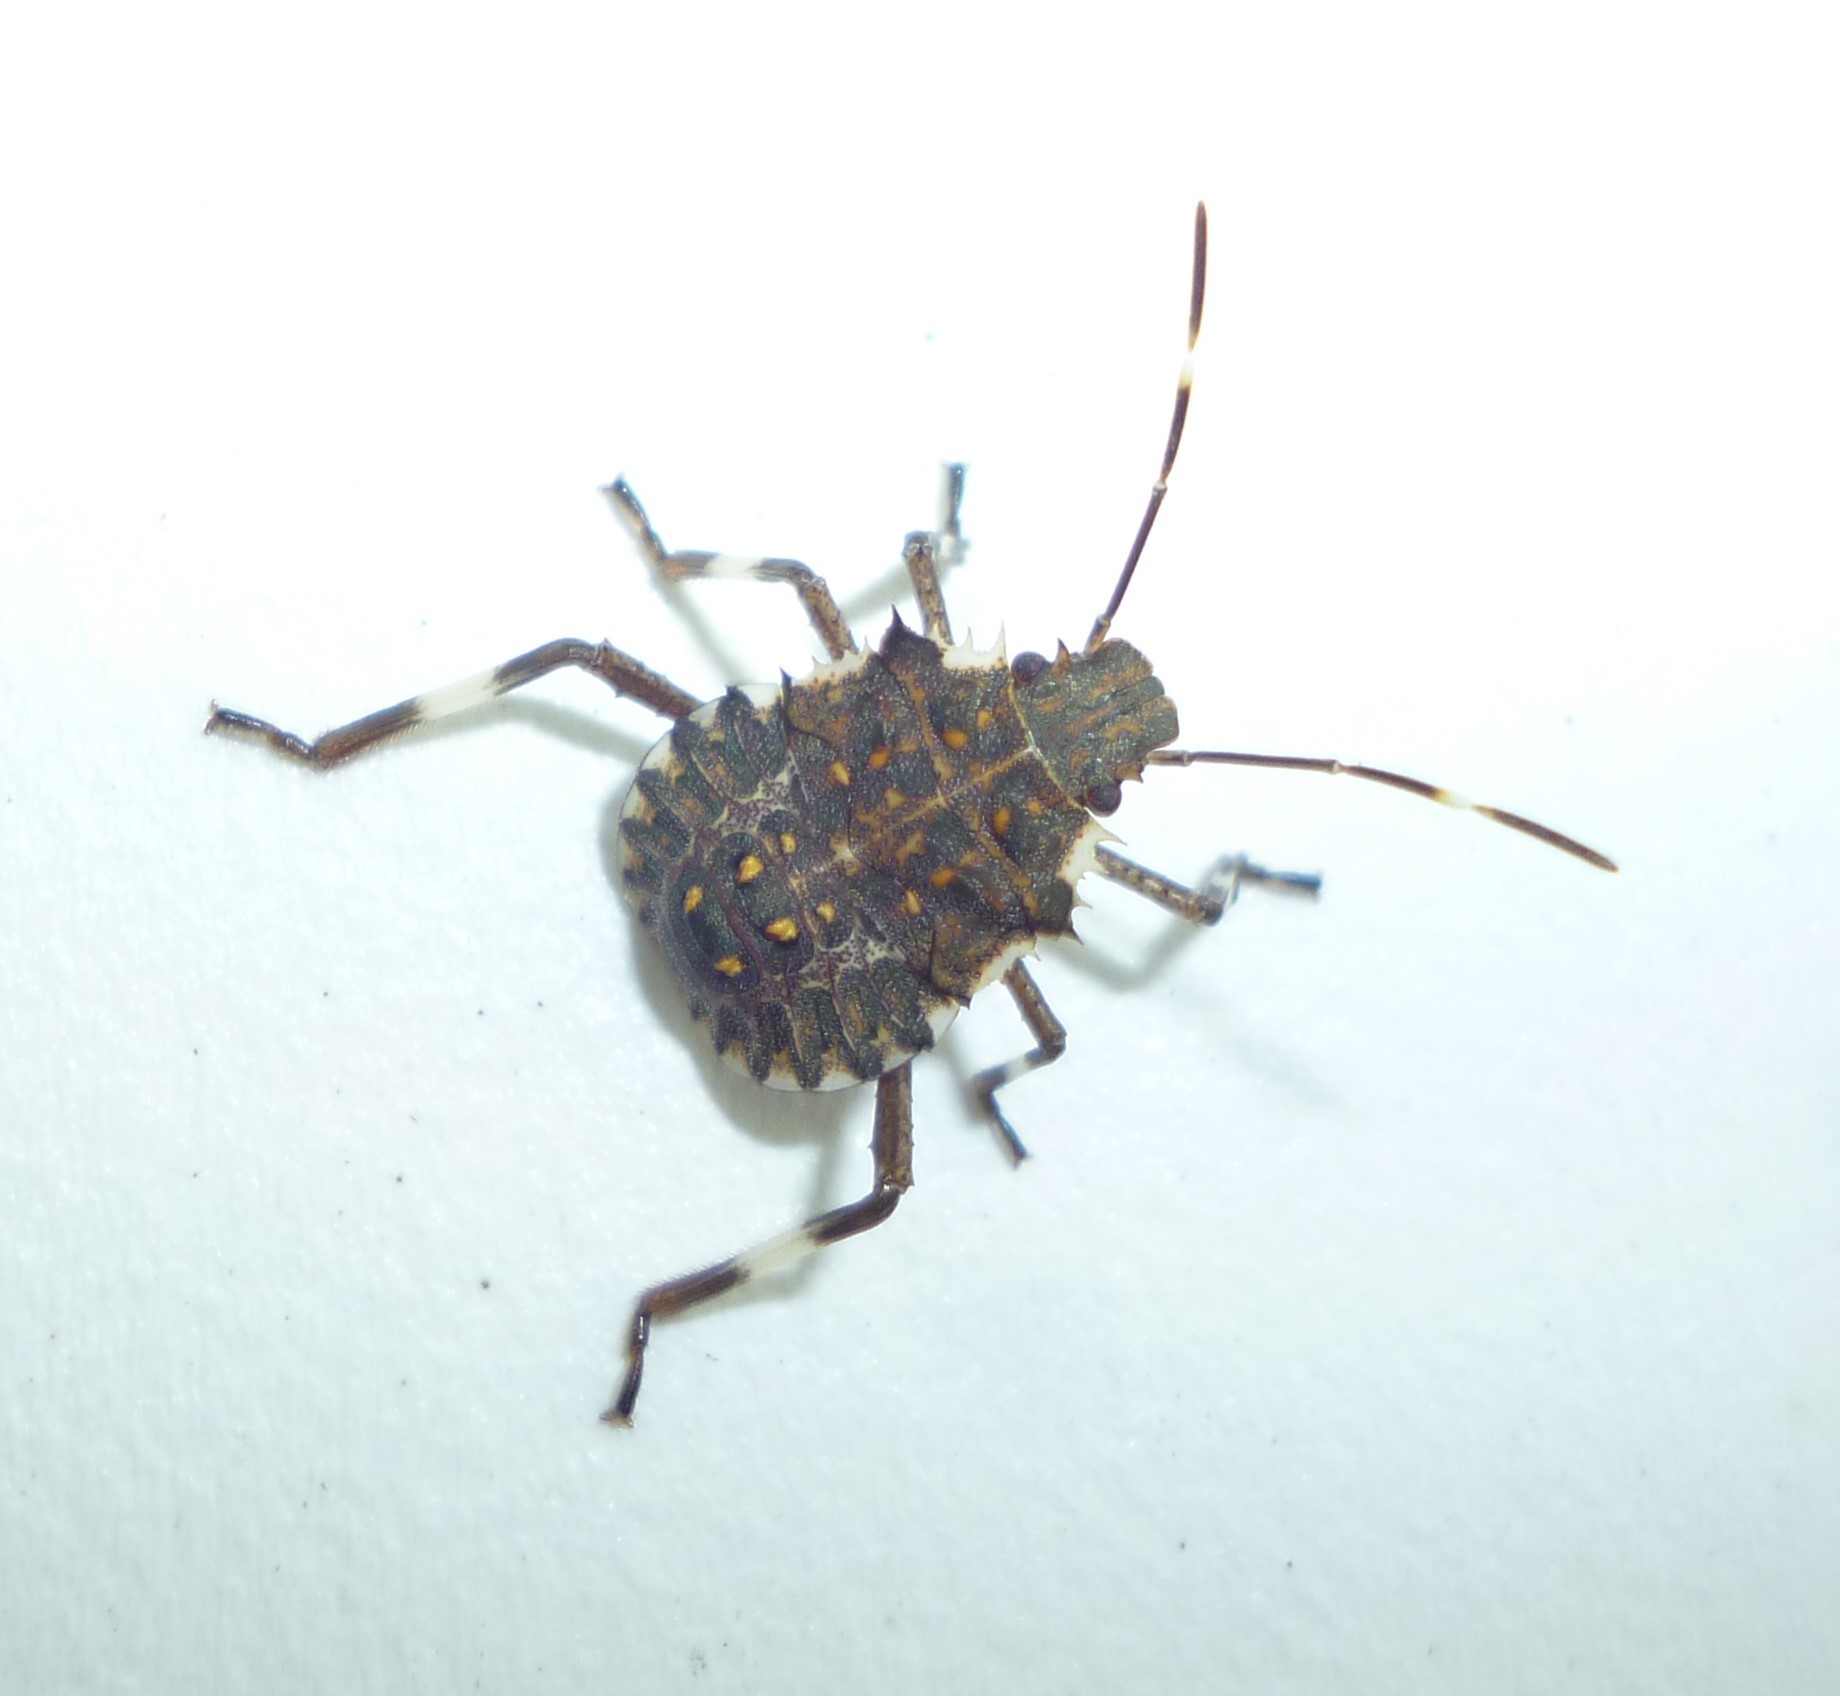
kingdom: Animalia
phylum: Arthropoda
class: Insecta
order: Hemiptera
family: Pentatomidae
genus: Halyomorpha
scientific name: Halyomorpha halys
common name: Brown marmorated stink bug
